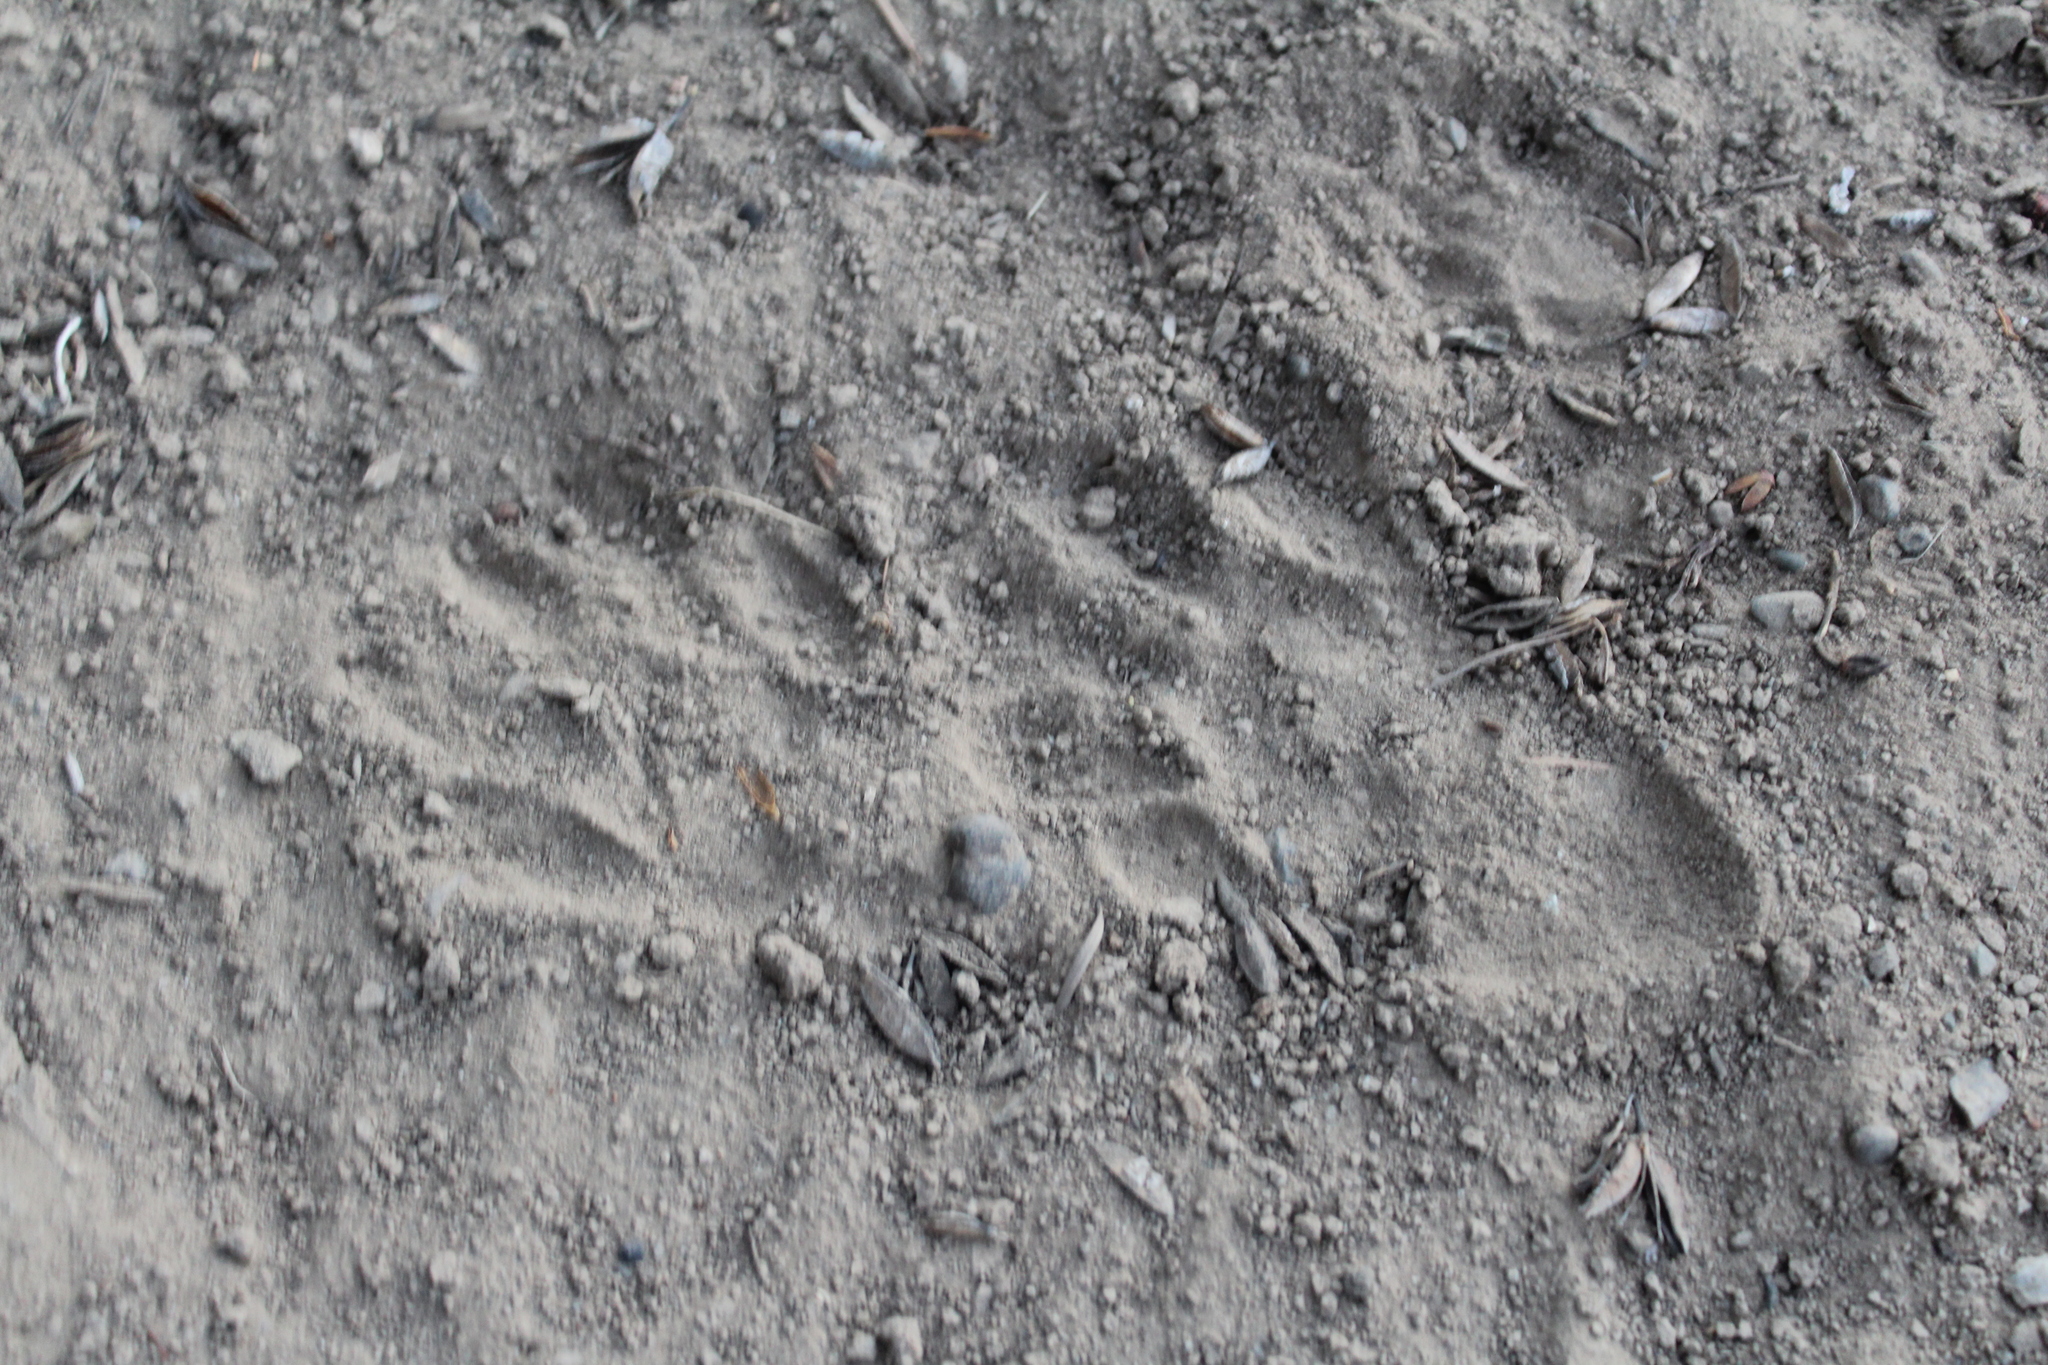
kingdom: Animalia
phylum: Chordata
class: Mammalia
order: Carnivora
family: Procyonidae
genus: Procyon
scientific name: Procyon lotor
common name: Raccoon
